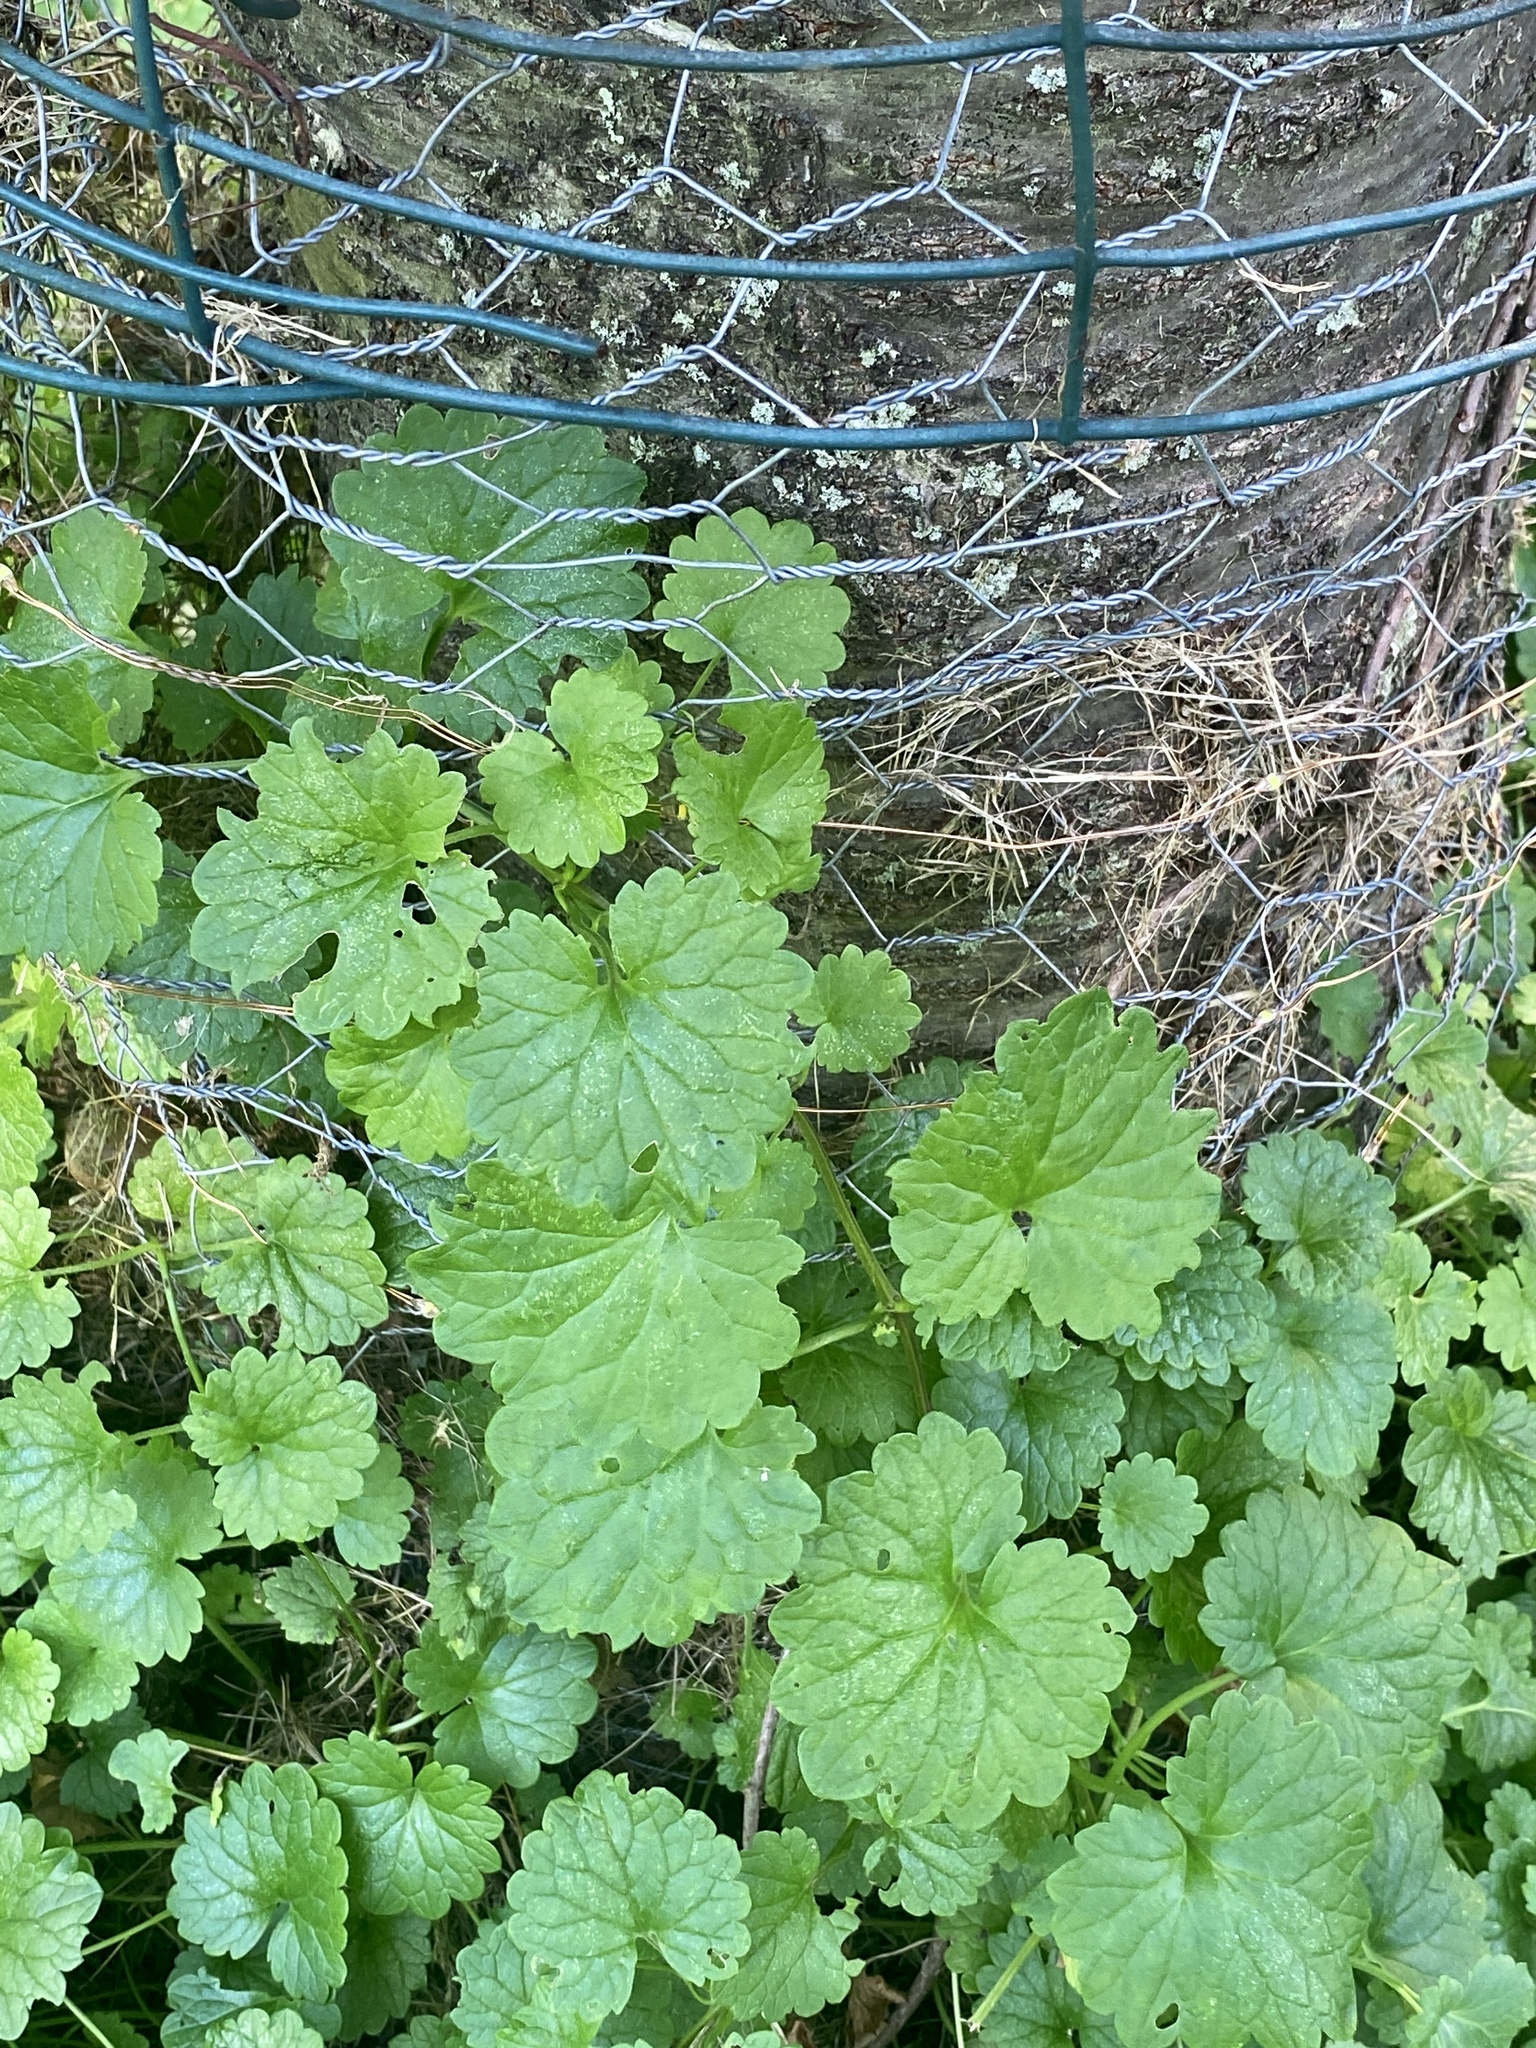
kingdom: Plantae
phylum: Tracheophyta
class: Magnoliopsida
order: Lamiales
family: Lamiaceae
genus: Glechoma
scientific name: Glechoma hederacea
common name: Ground ivy
